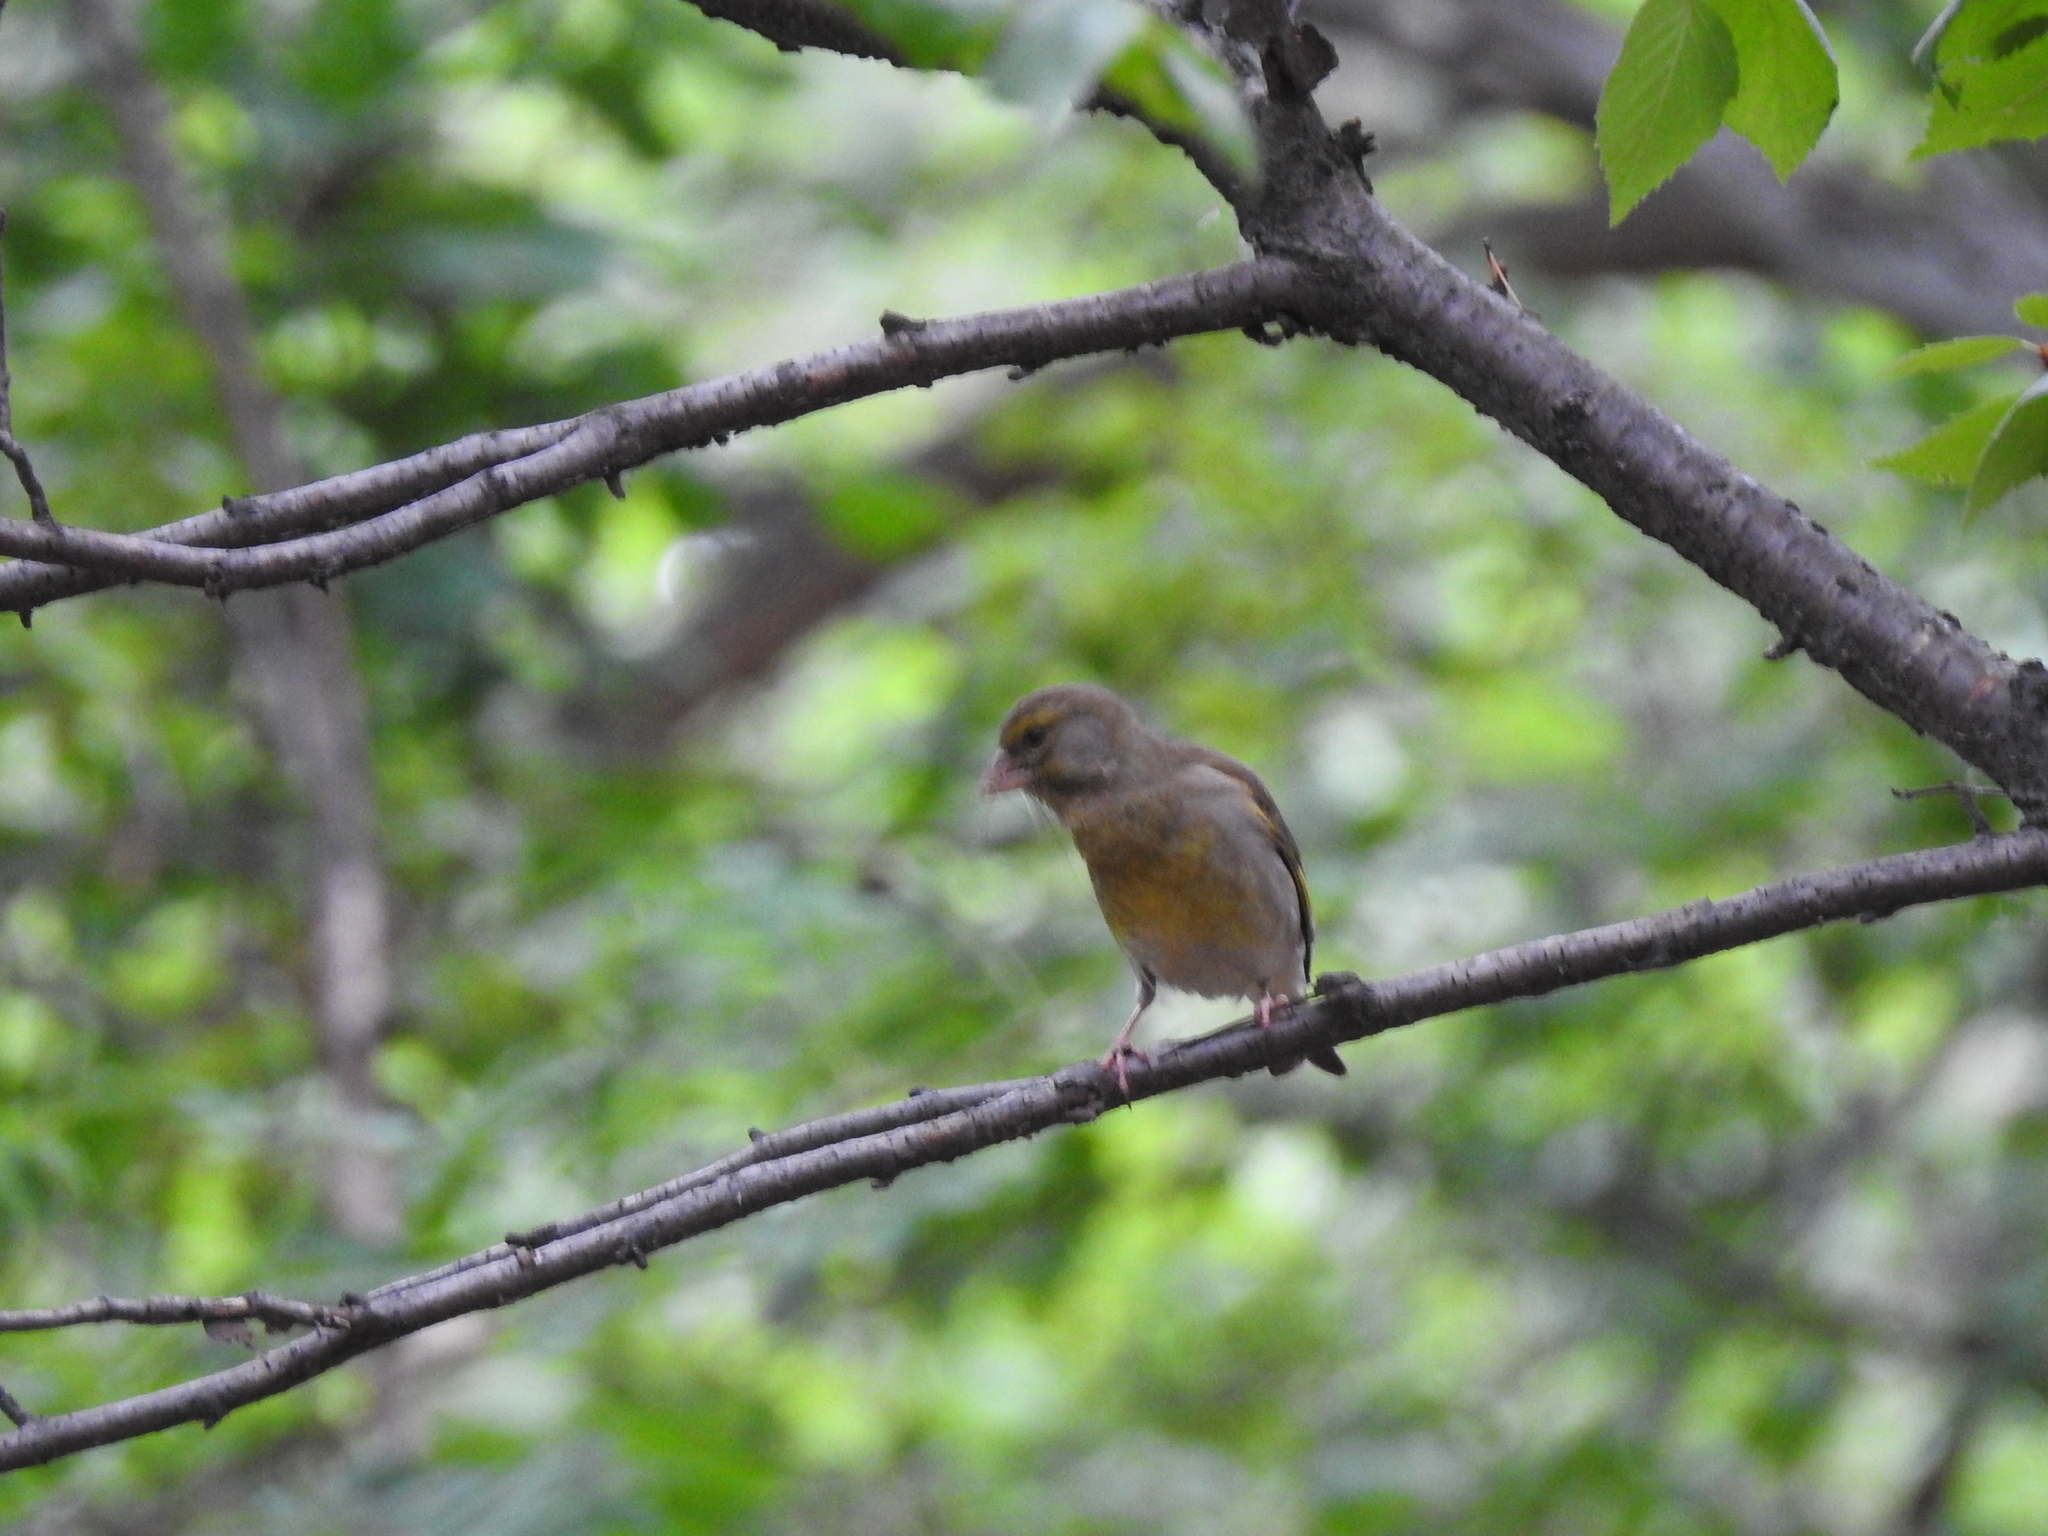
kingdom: Plantae
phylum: Tracheophyta
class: Liliopsida
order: Poales
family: Poaceae
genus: Chloris
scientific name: Chloris chloris
